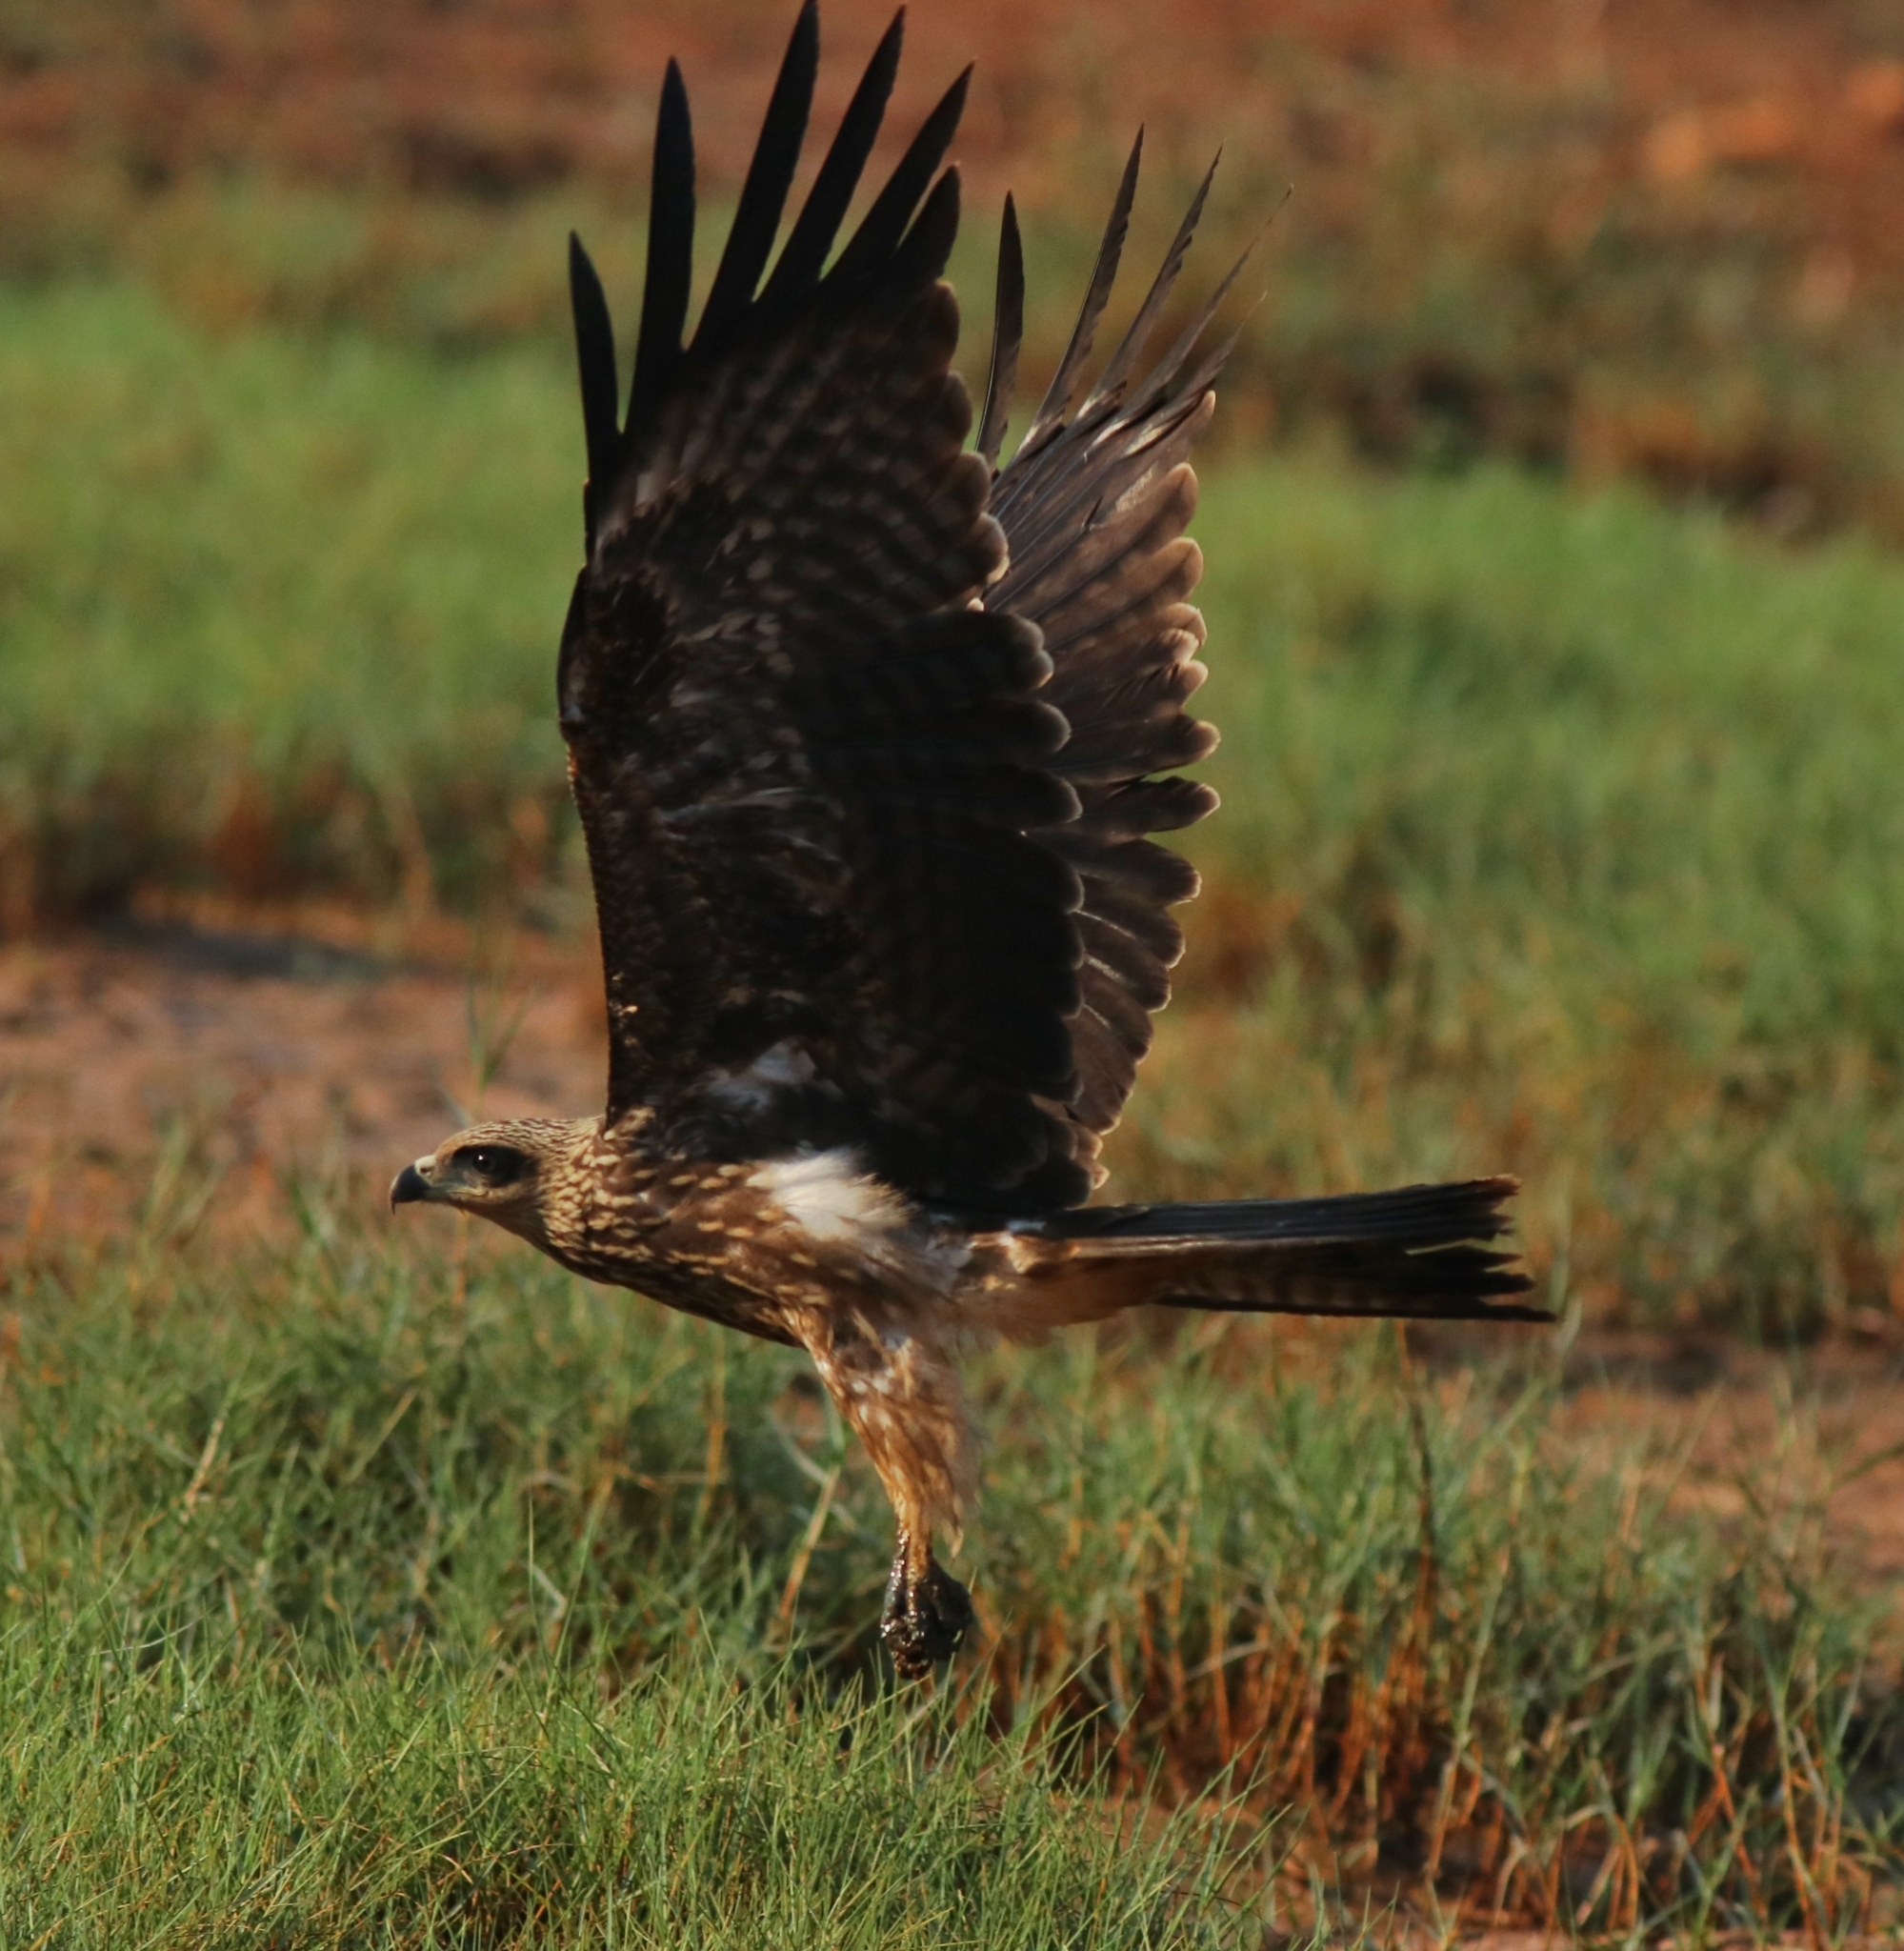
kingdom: Animalia
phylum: Chordata
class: Aves
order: Accipitriformes
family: Accipitridae
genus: Milvus
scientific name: Milvus migrans
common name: Black kite
